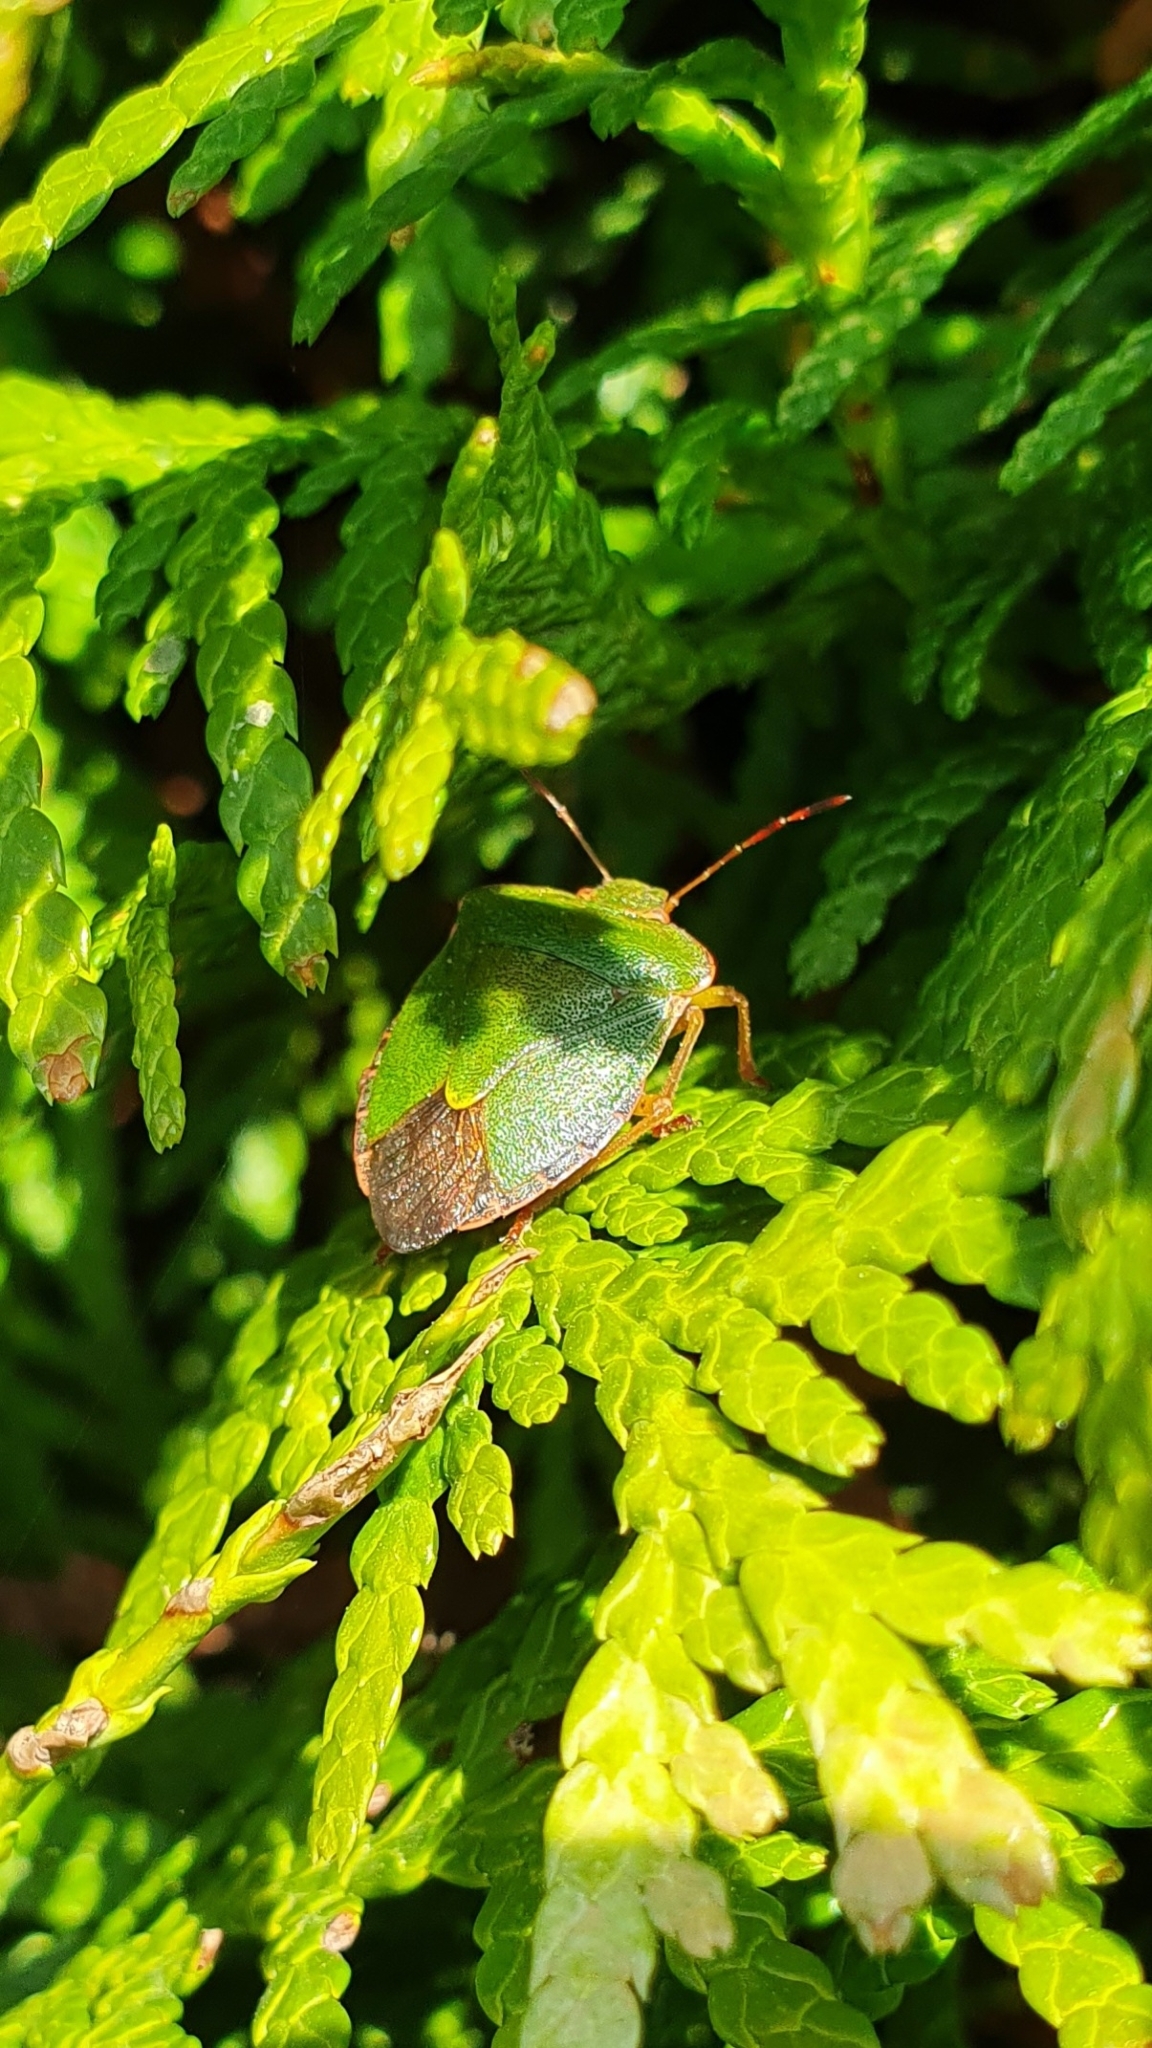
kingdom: Animalia
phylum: Arthropoda
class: Insecta
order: Hemiptera
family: Pentatomidae
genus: Palomena
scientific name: Palomena prasina
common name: Green shieldbug
